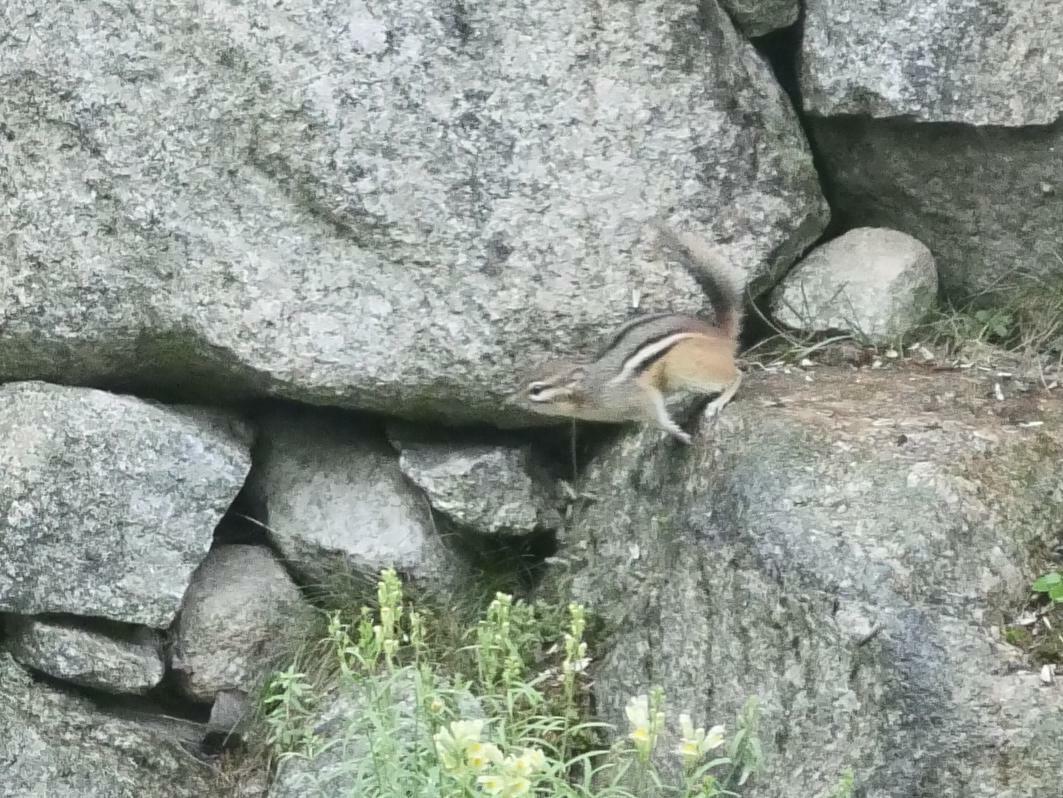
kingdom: Animalia
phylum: Chordata
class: Mammalia
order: Rodentia
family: Sciuridae
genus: Tamias
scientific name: Tamias striatus
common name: Eastern chipmunk
